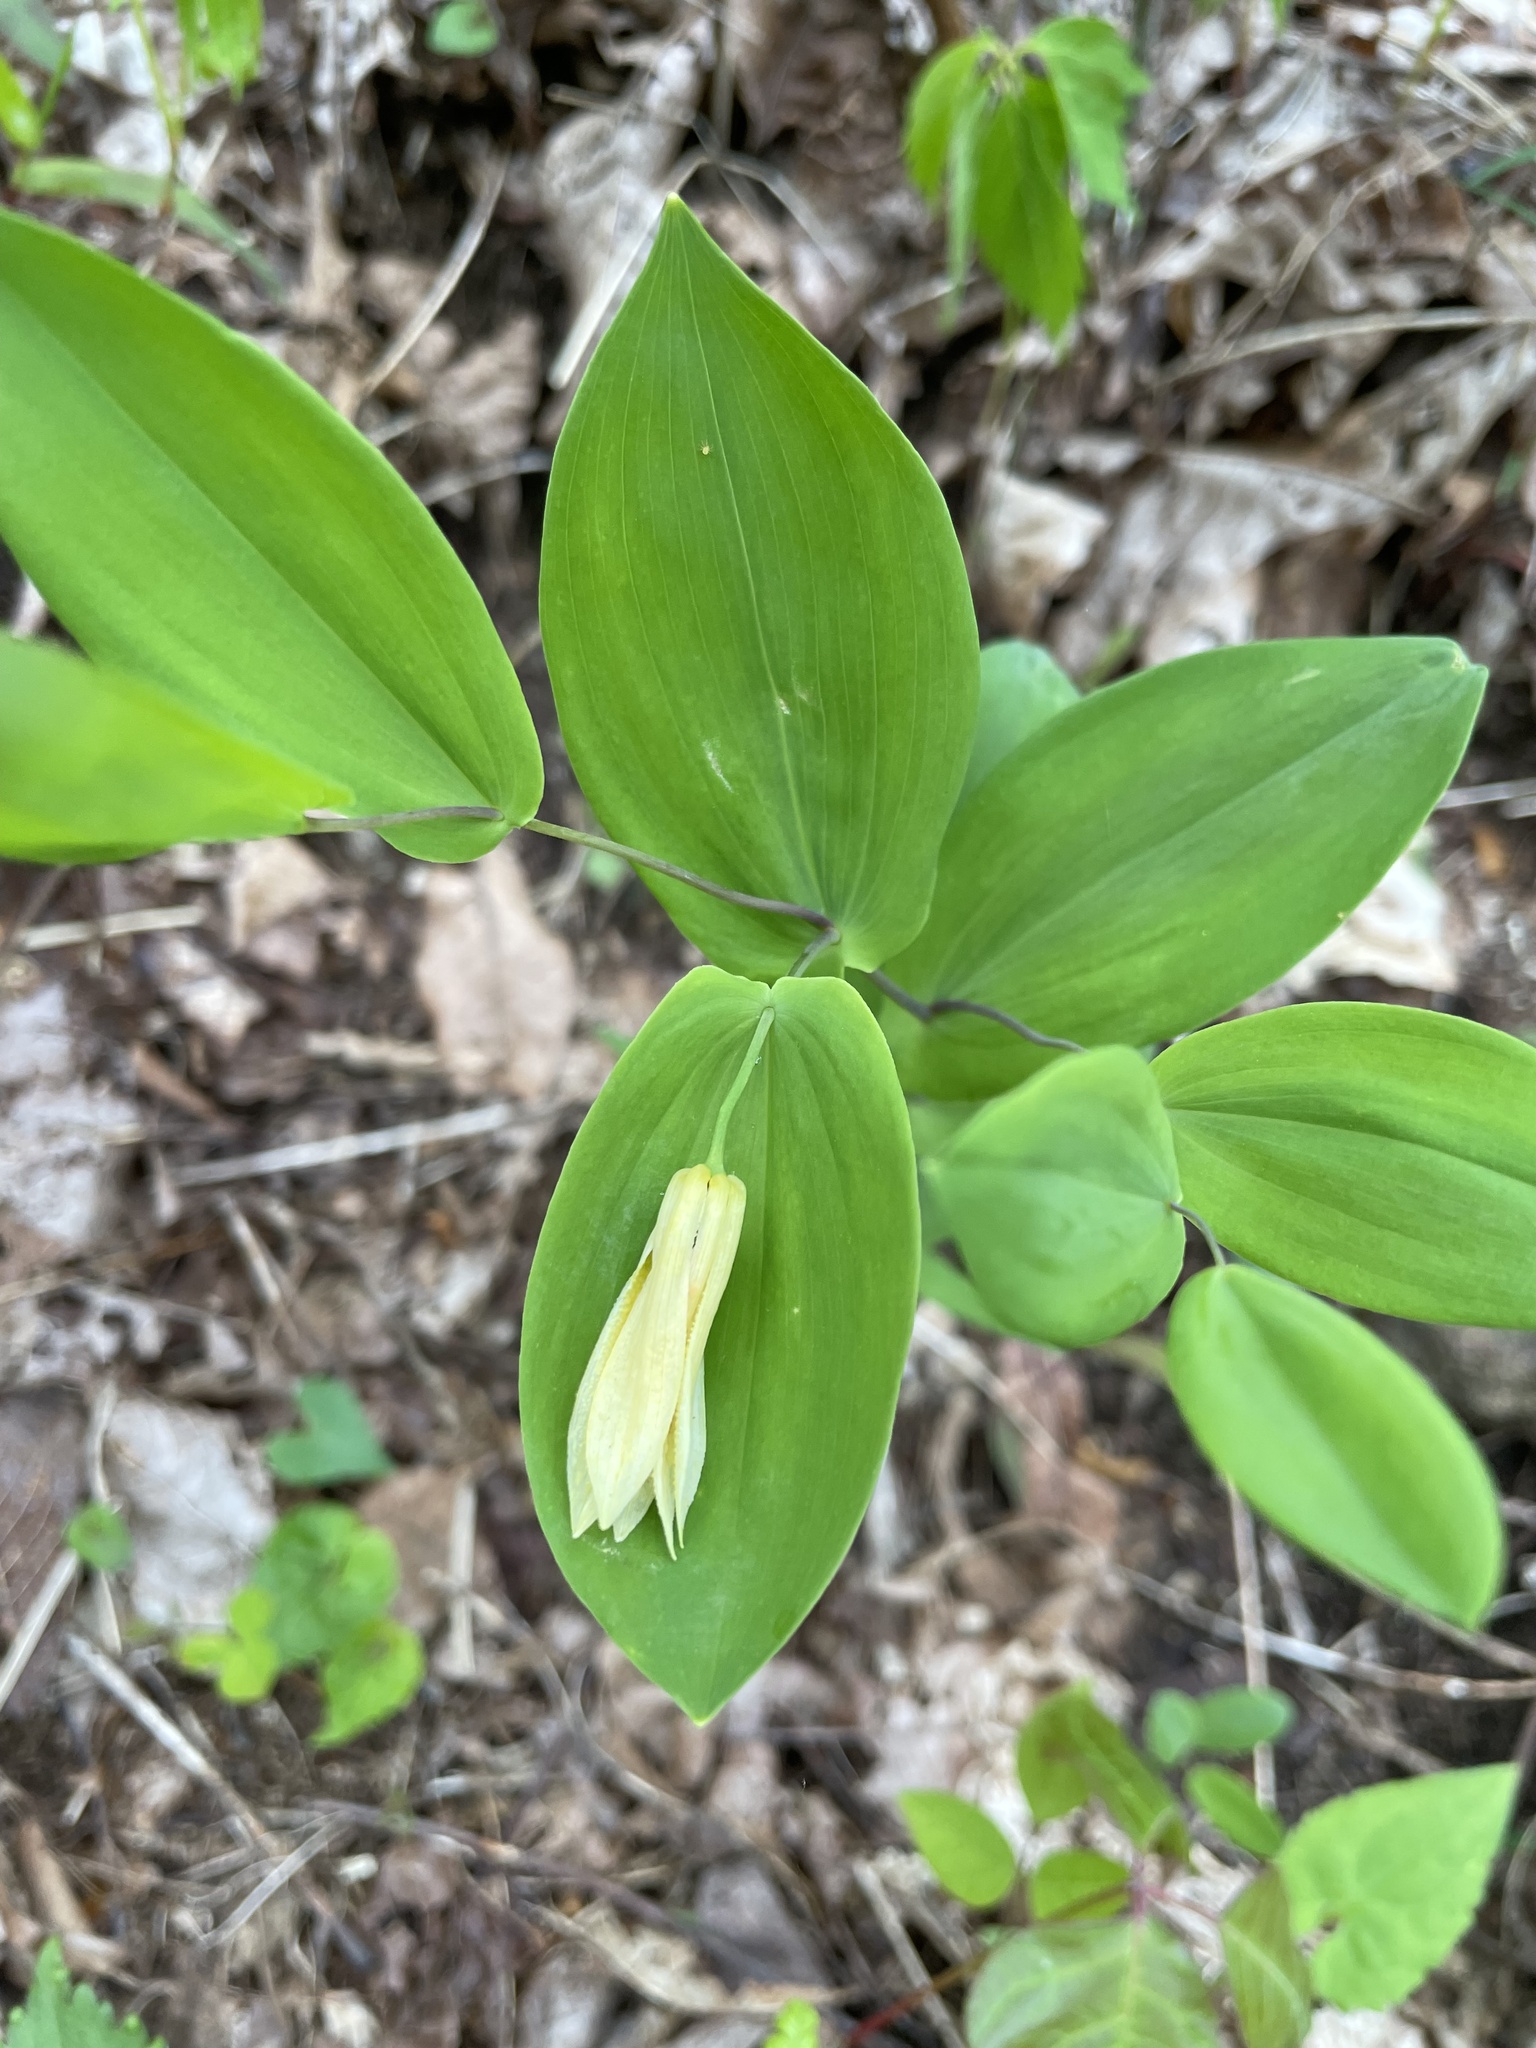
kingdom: Plantae
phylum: Tracheophyta
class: Liliopsida
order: Liliales
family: Colchicaceae
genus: Uvularia
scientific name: Uvularia perfoliata
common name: Perfoliate bellwort
